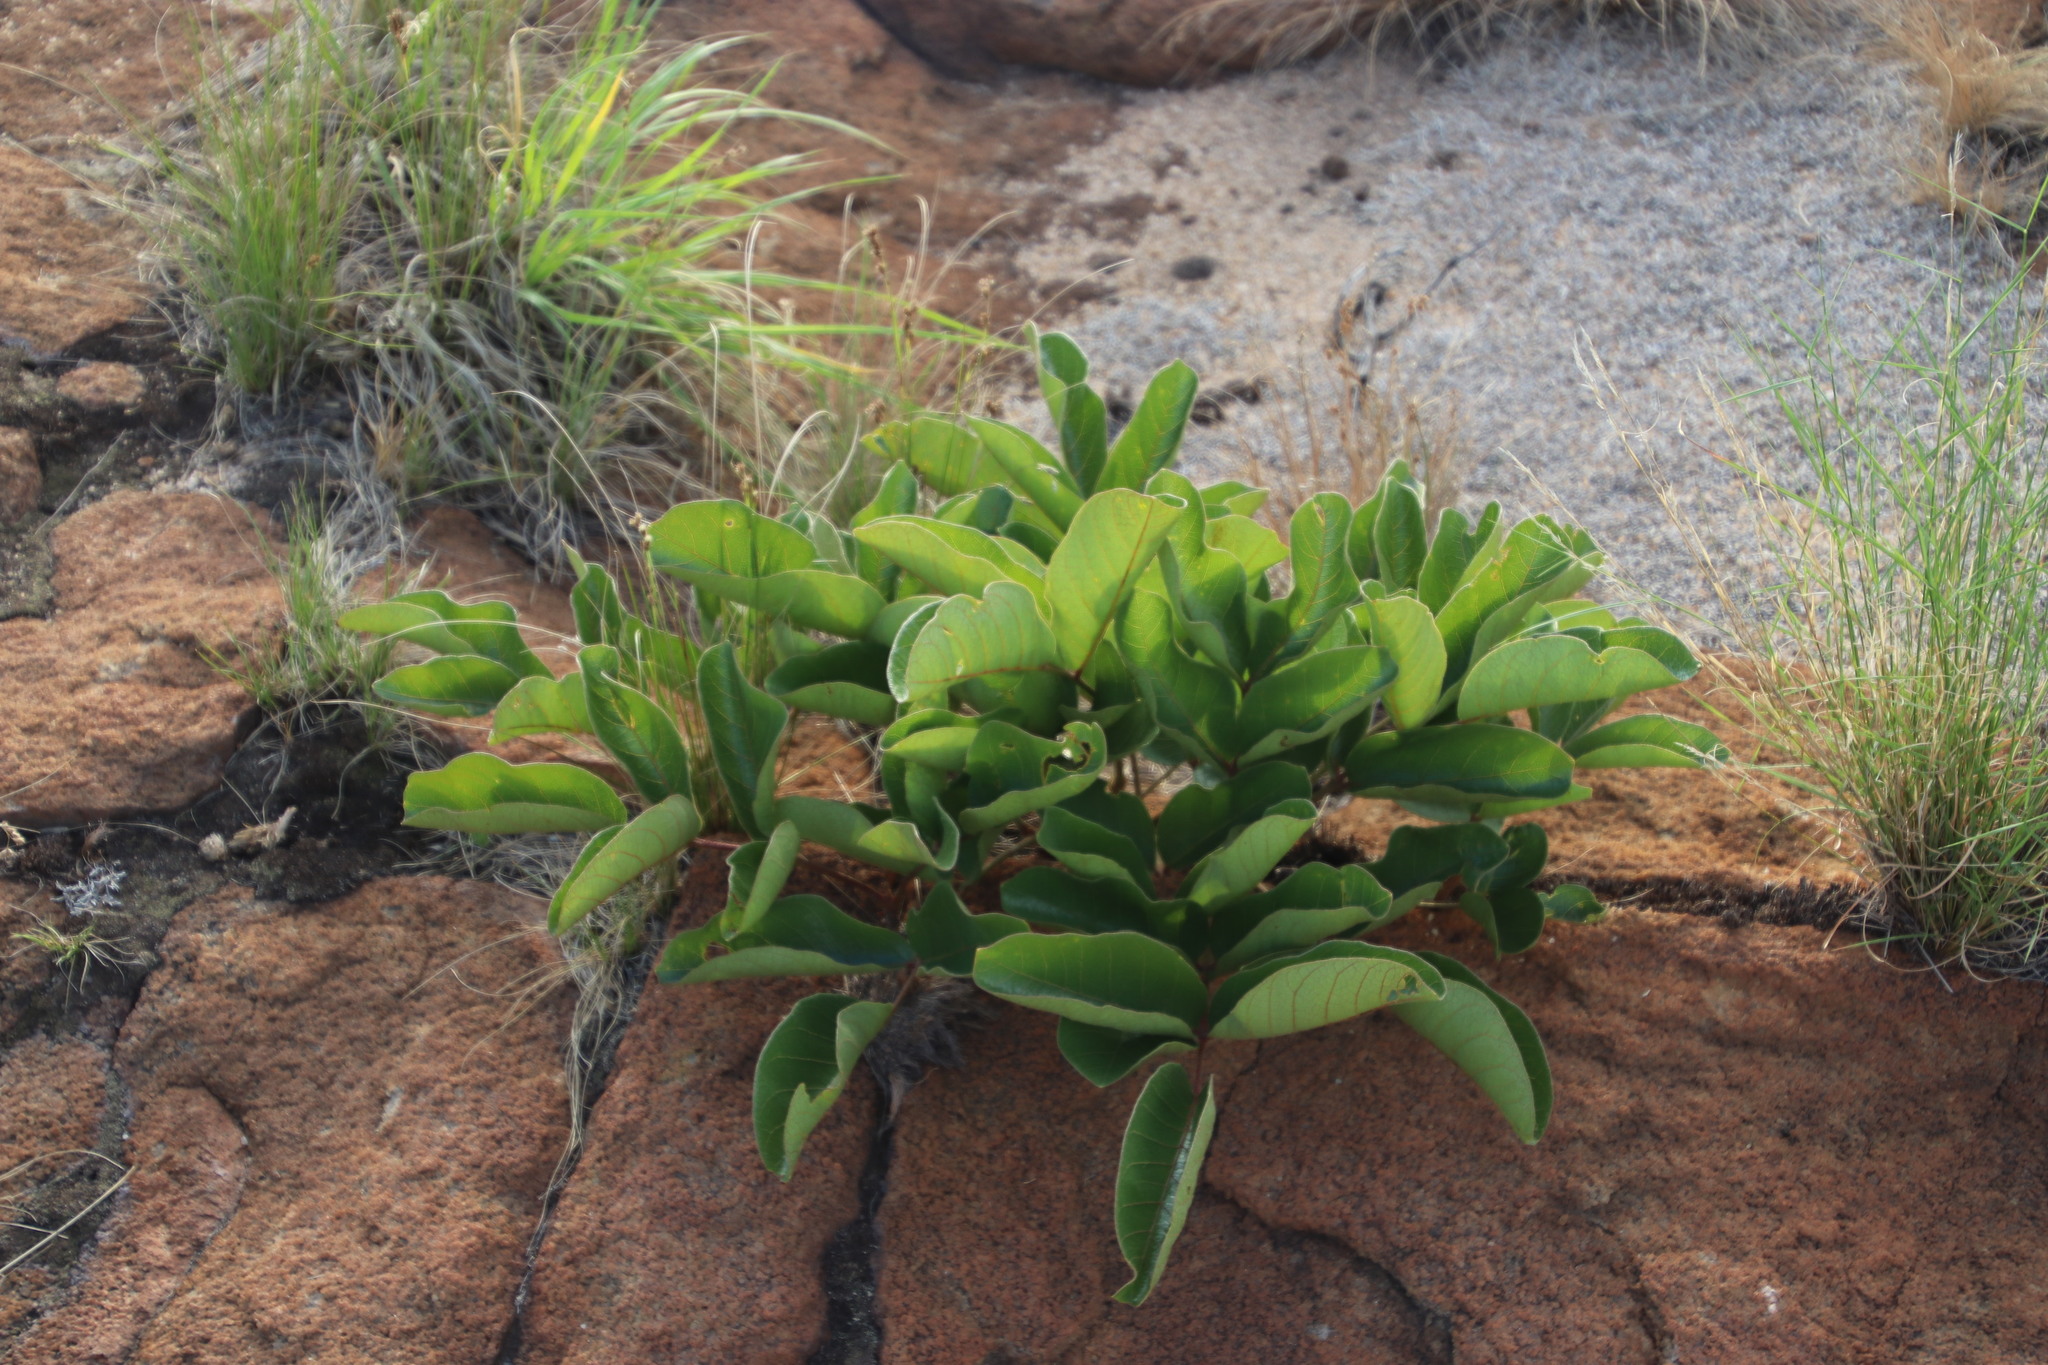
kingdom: Plantae
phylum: Tracheophyta
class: Magnoliopsida
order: Sapindales
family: Anacardiaceae
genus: Lannea
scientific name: Lannea edulis
